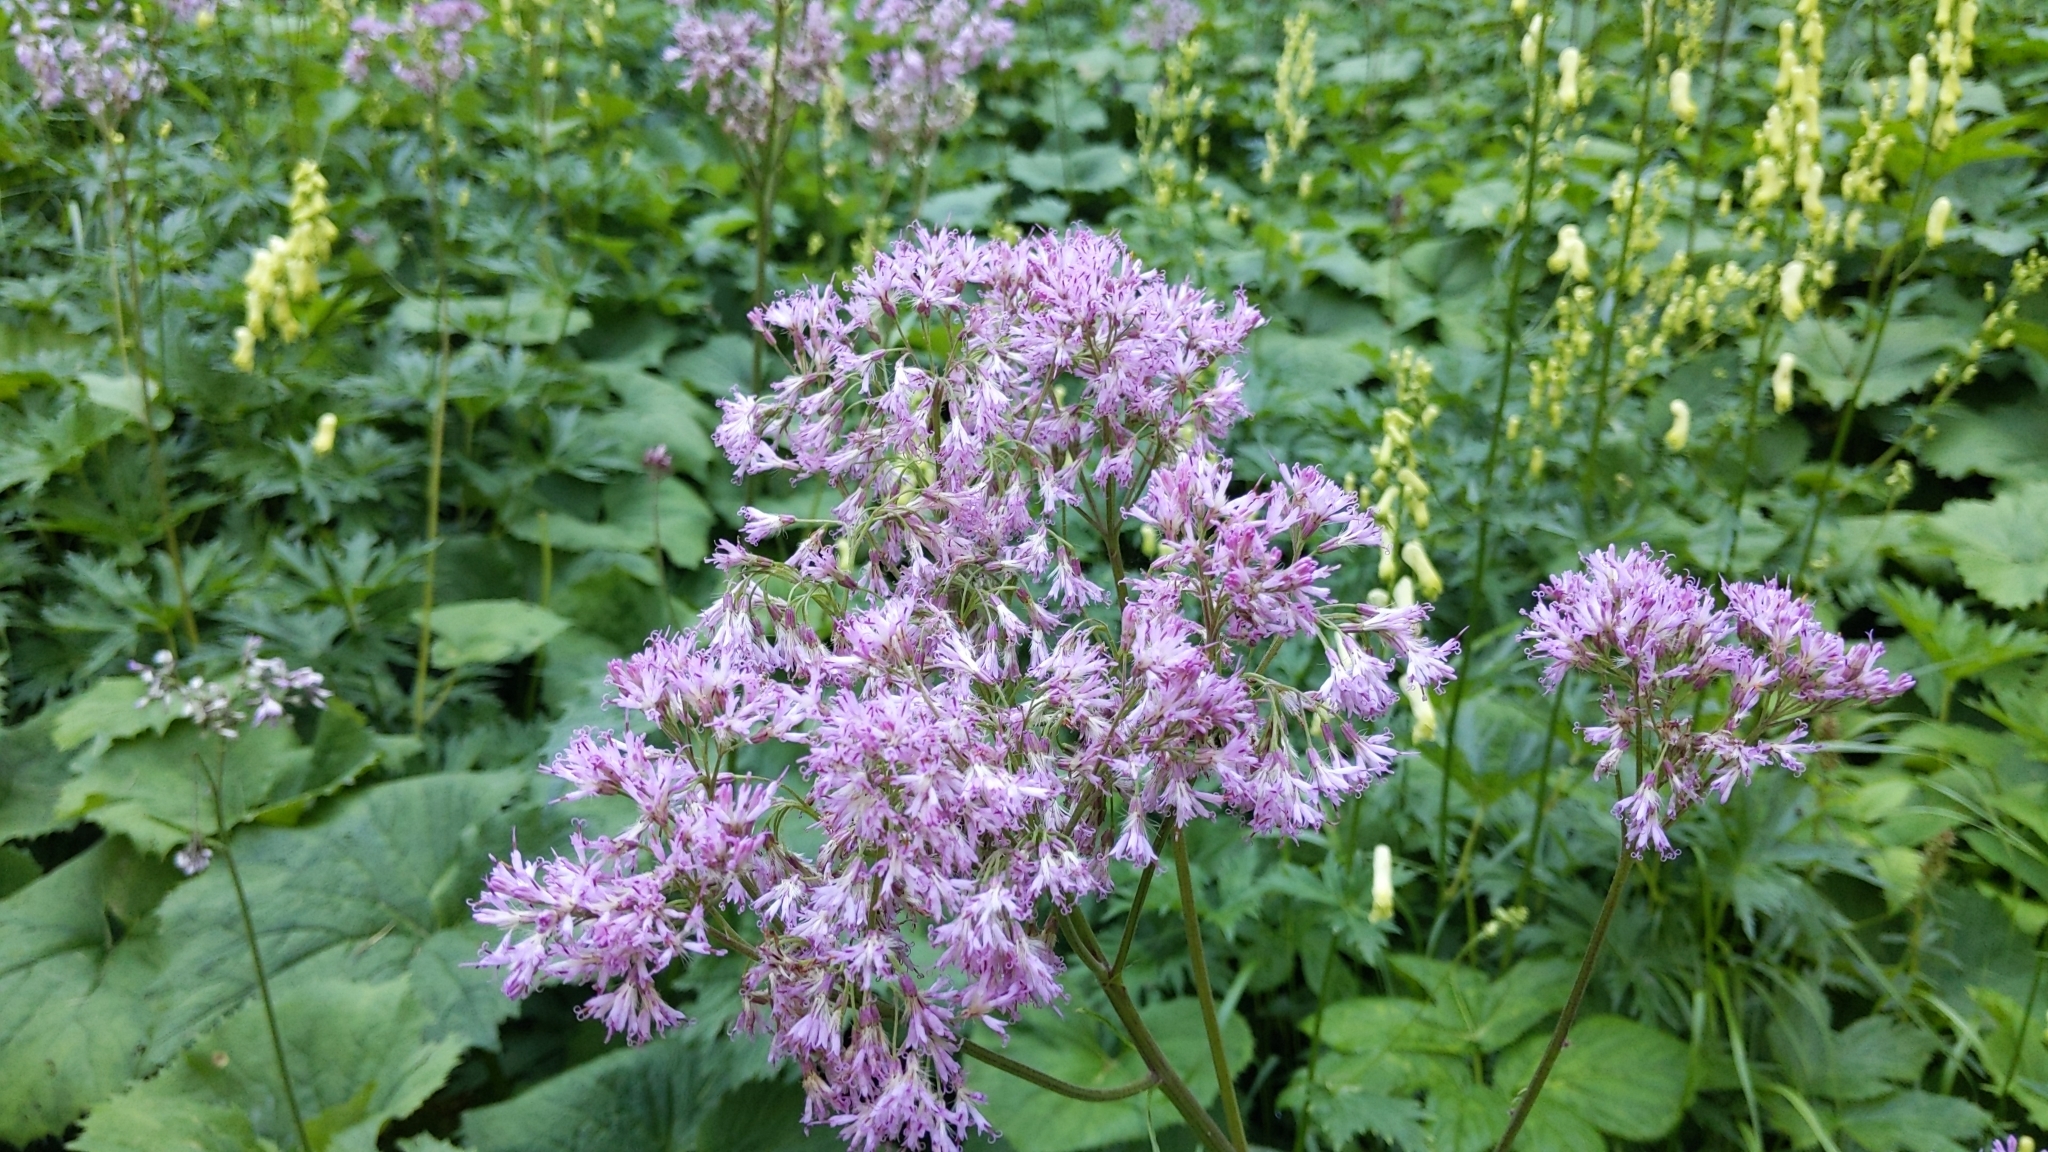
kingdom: Plantae
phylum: Tracheophyta
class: Magnoliopsida
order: Asterales
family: Asteraceae
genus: Adenostyles
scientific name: Adenostyles alliariae
